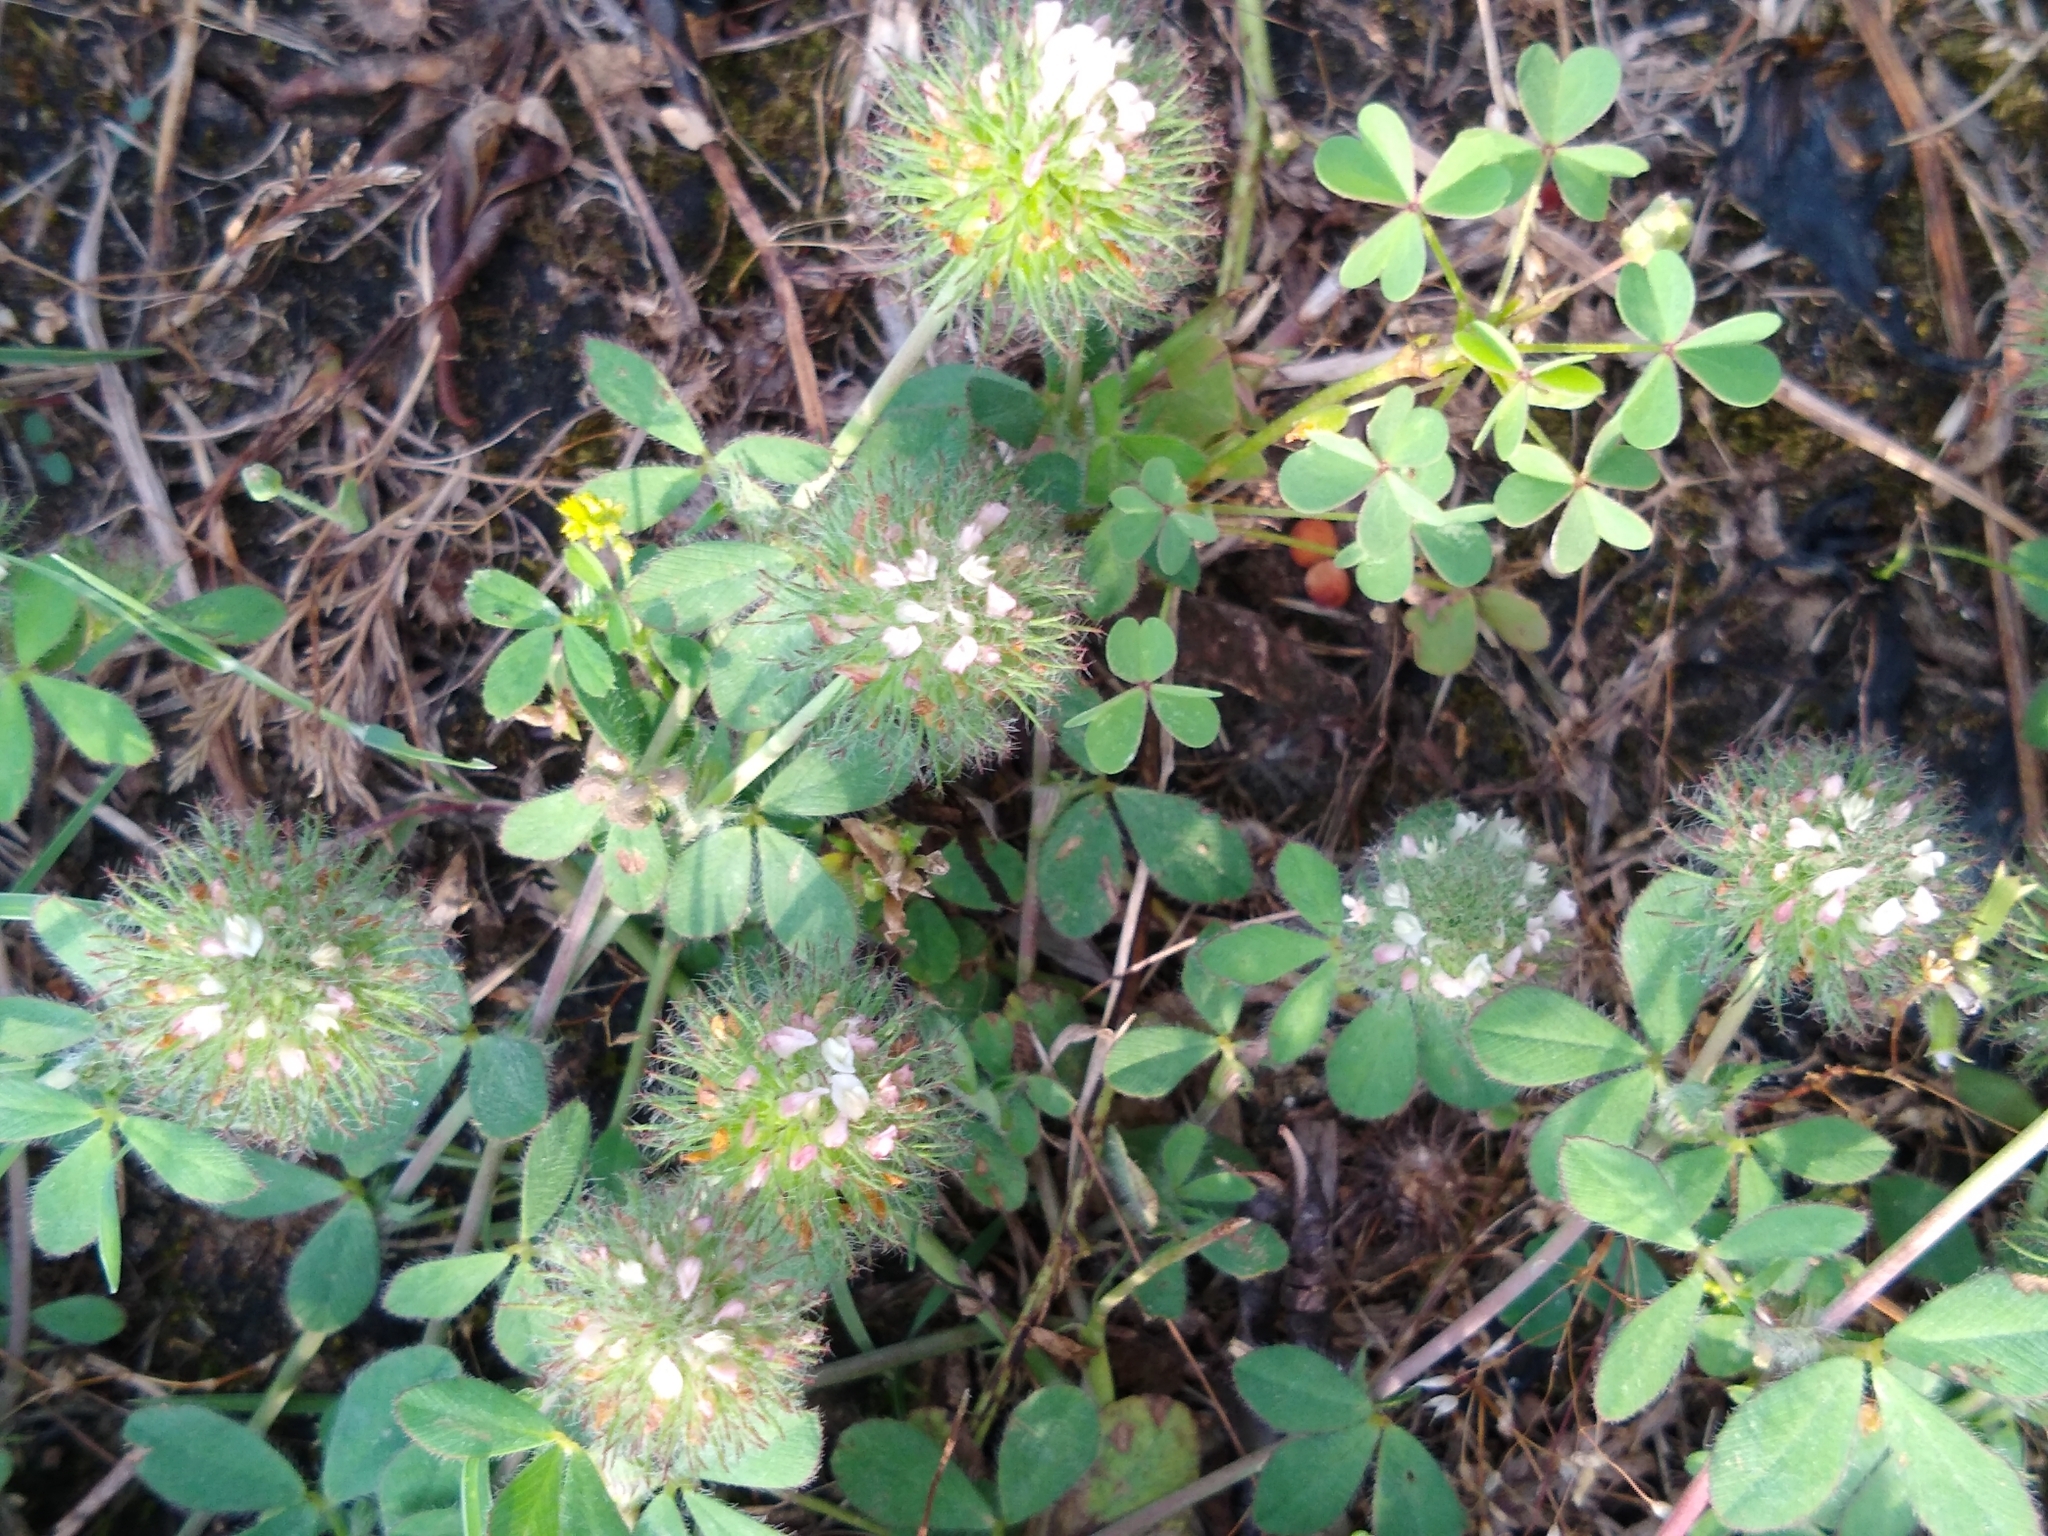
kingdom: Plantae
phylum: Tracheophyta
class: Magnoliopsida
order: Fabales
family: Fabaceae
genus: Trifolium
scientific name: Trifolium lappaceum
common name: Bur clover
